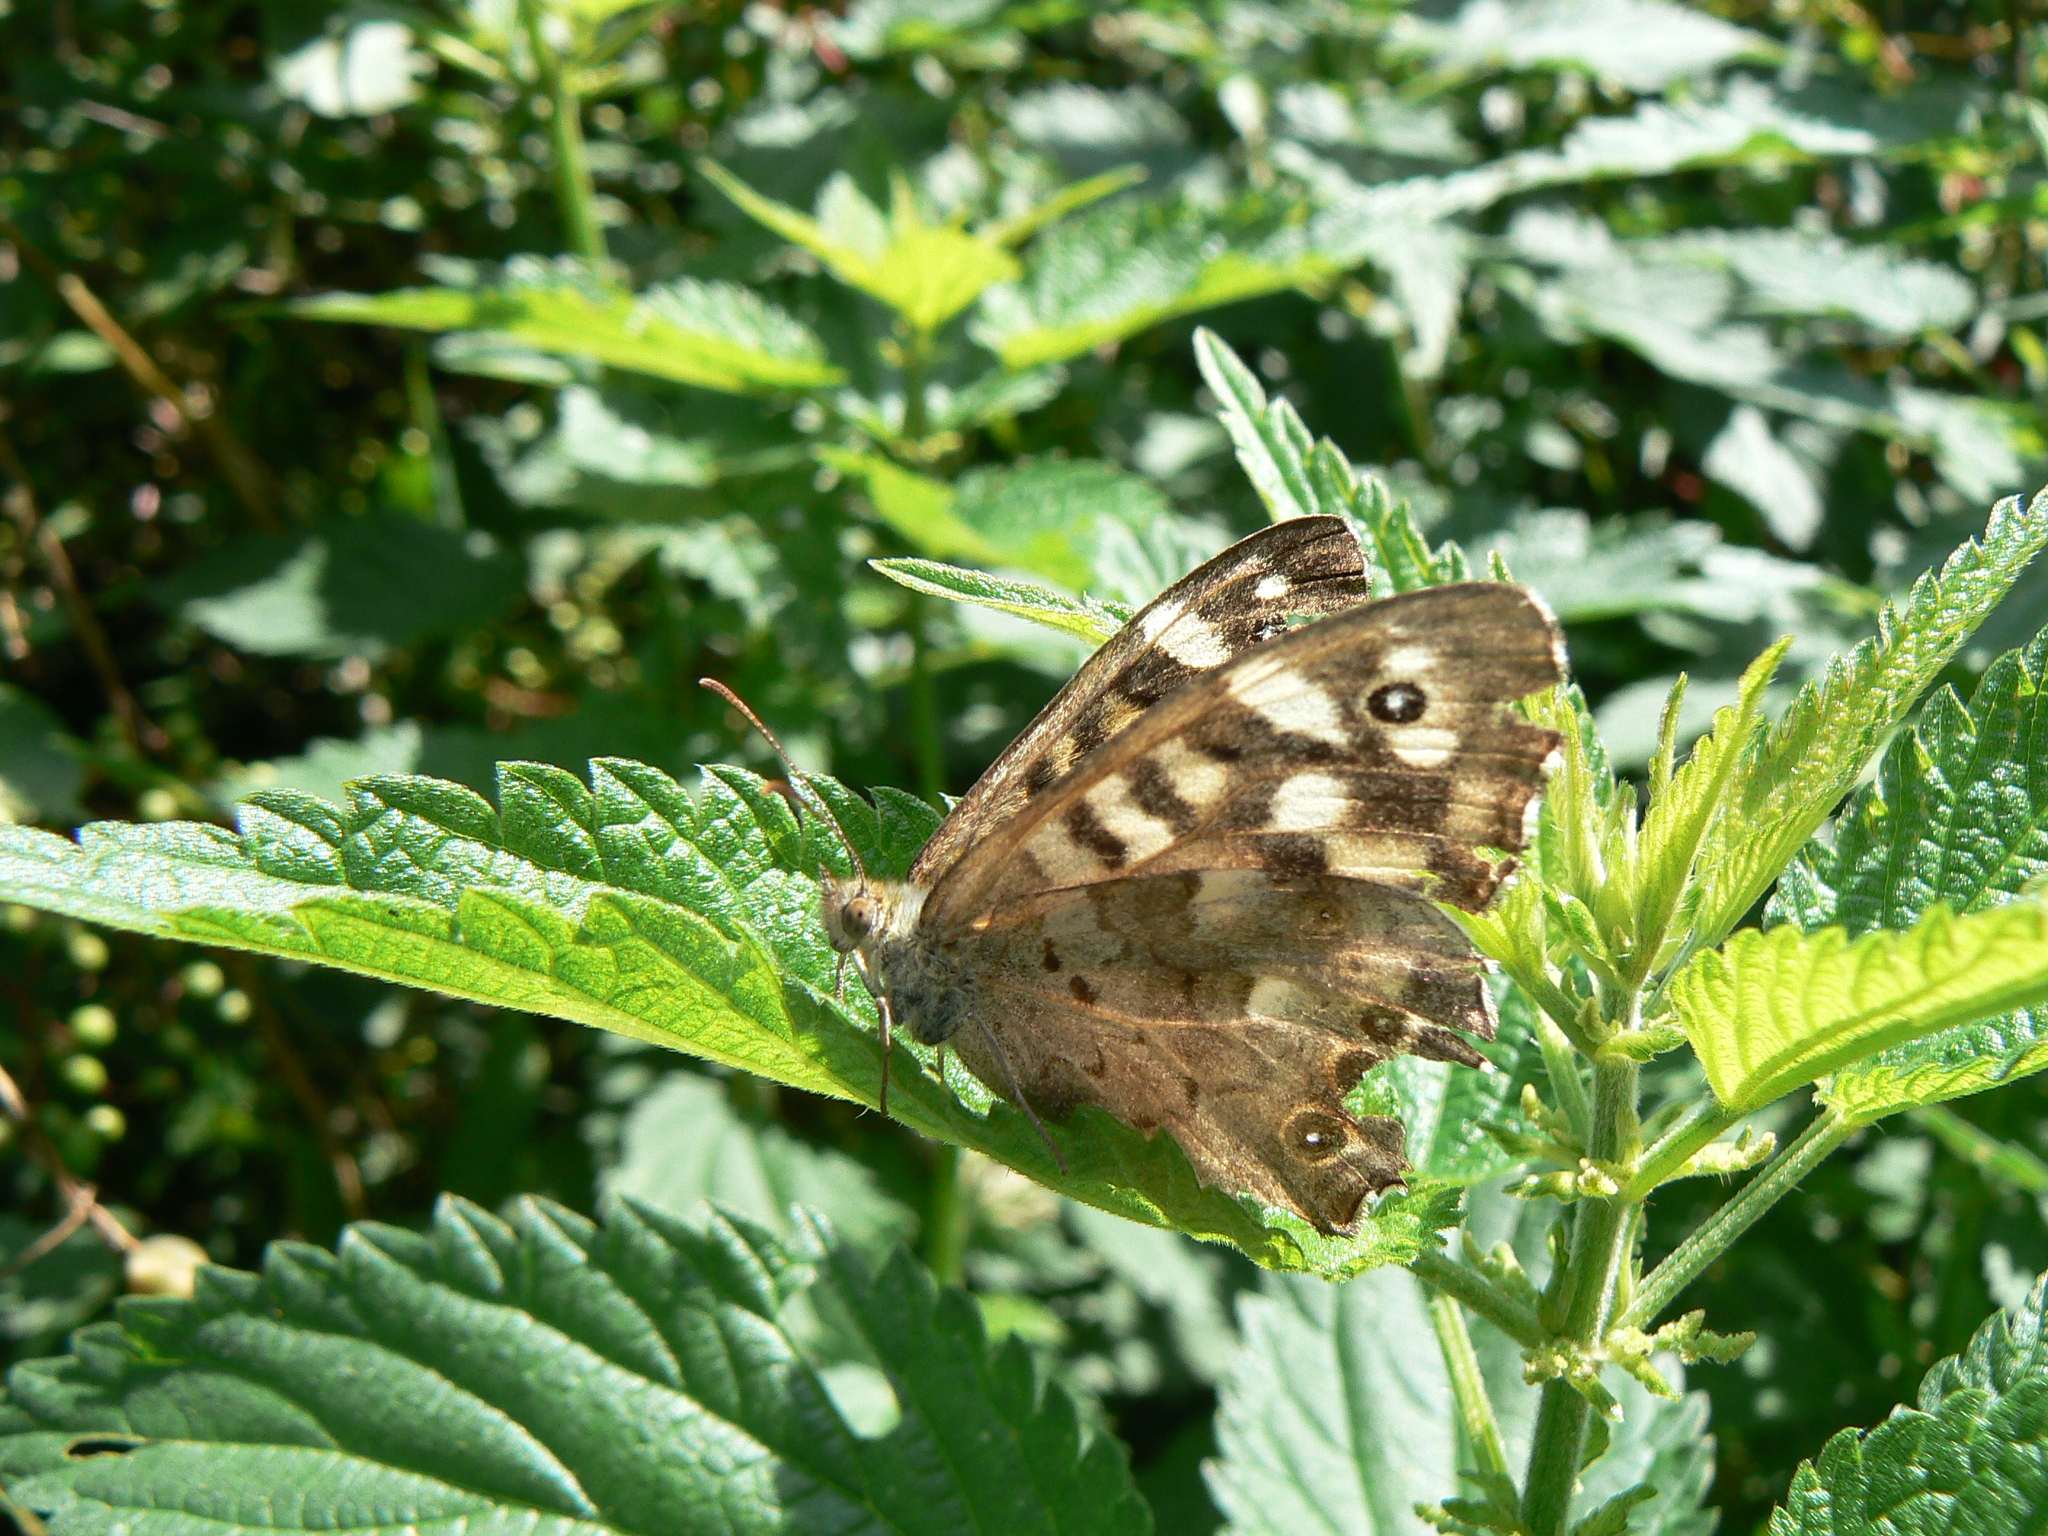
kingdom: Animalia
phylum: Arthropoda
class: Insecta
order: Lepidoptera
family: Nymphalidae
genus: Pararge
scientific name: Pararge aegeria
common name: Speckled wood
